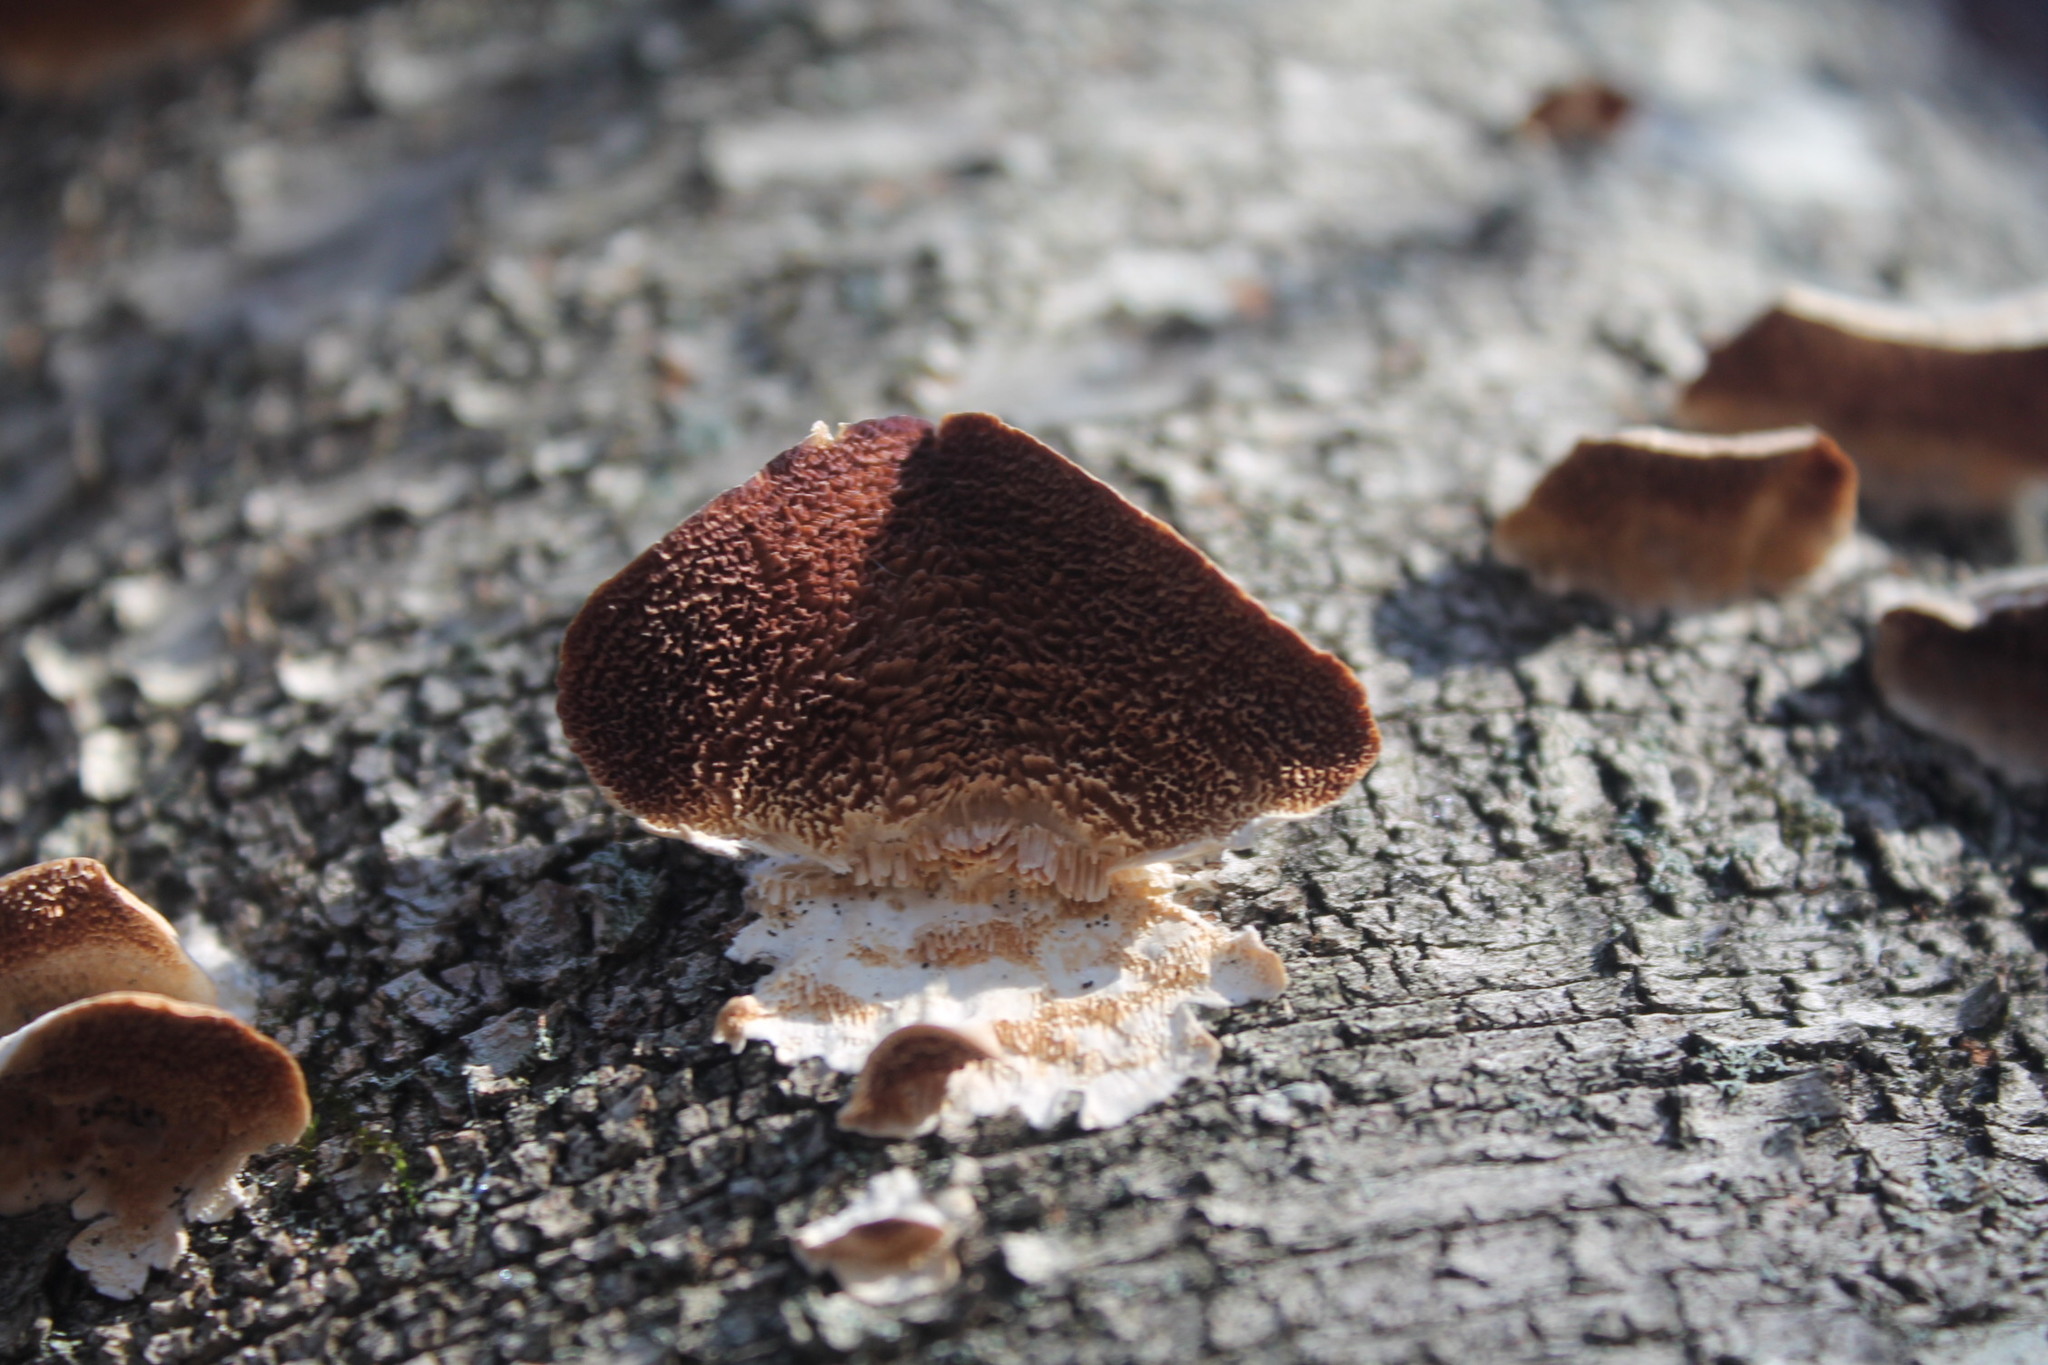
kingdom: Fungi
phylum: Basidiomycota
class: Agaricomycetes
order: Hymenochaetales
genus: Trichaptum
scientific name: Trichaptum biforme
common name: Violet-toothed polypore
